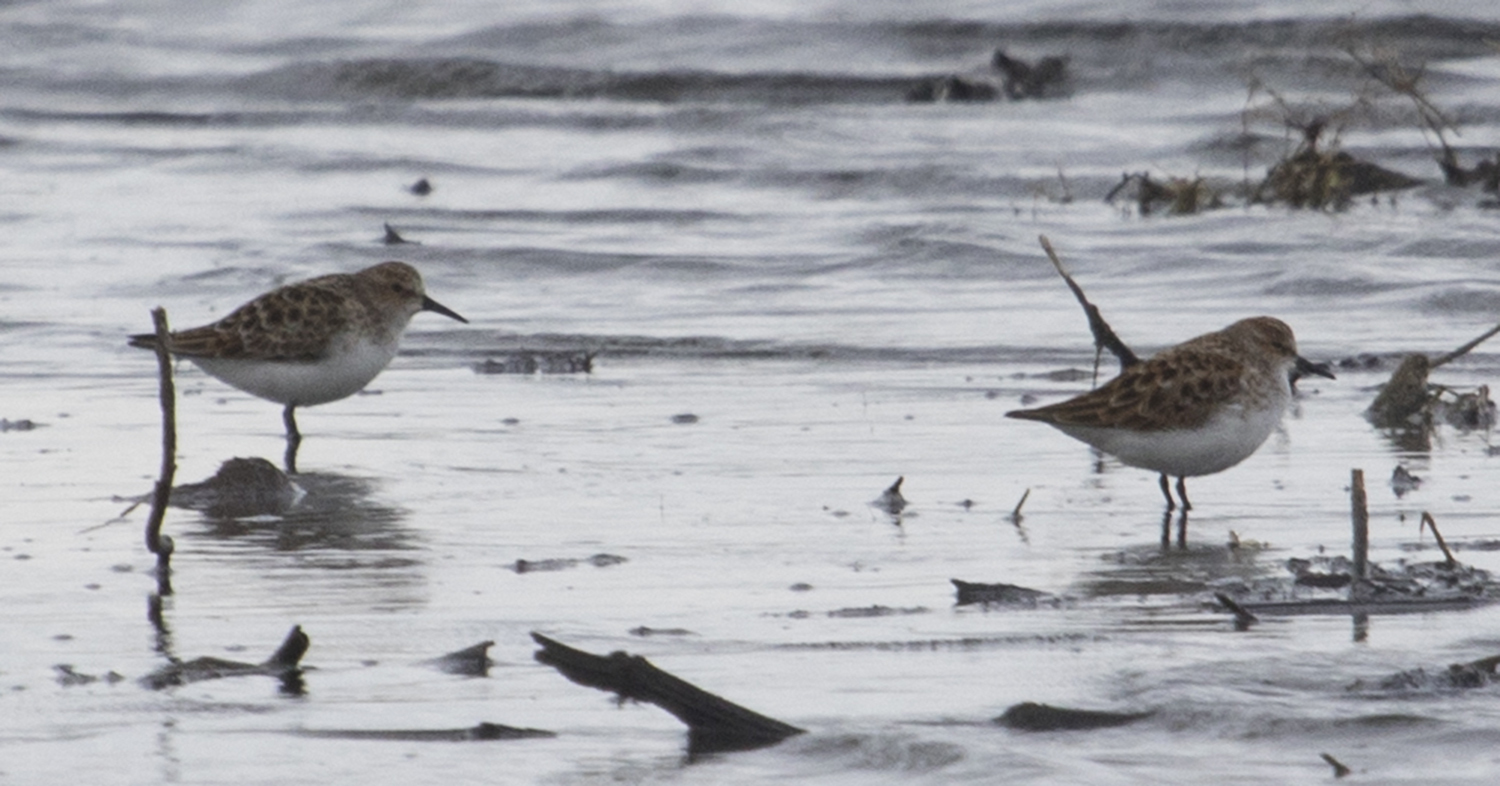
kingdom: Animalia
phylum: Chordata
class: Aves
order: Charadriiformes
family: Scolopacidae
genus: Calidris
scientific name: Calidris minuta
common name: Little stint
